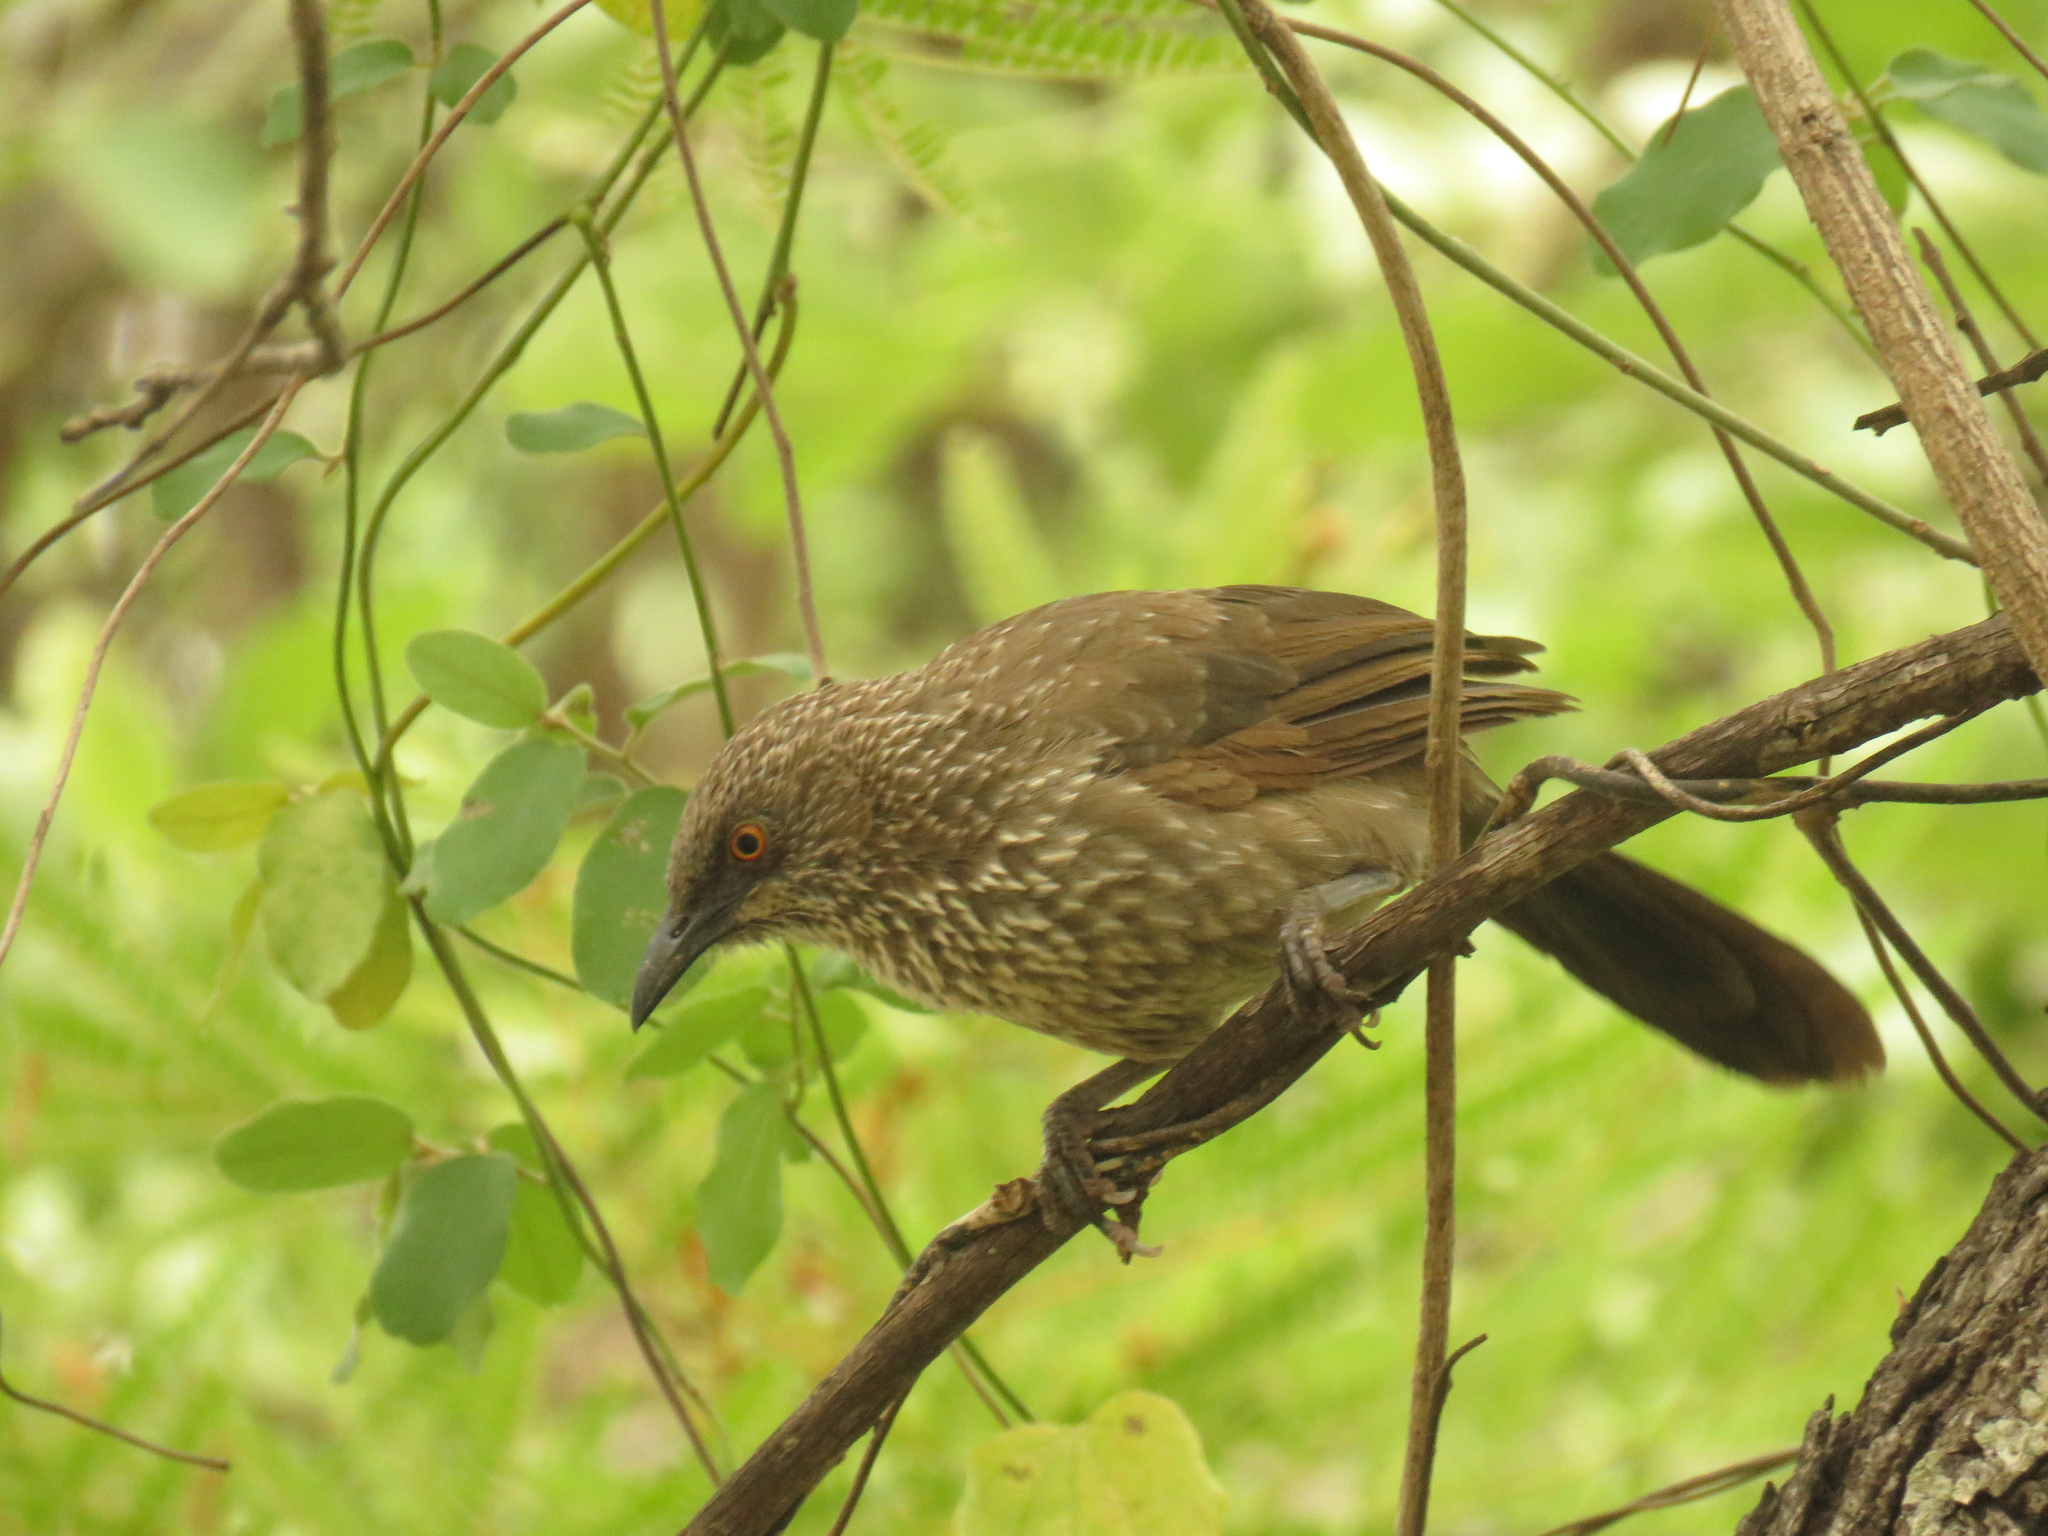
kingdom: Animalia
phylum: Chordata
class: Aves
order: Passeriformes
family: Leiothrichidae
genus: Turdoides
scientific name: Turdoides jardineii
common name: Arrow-marked babbler
